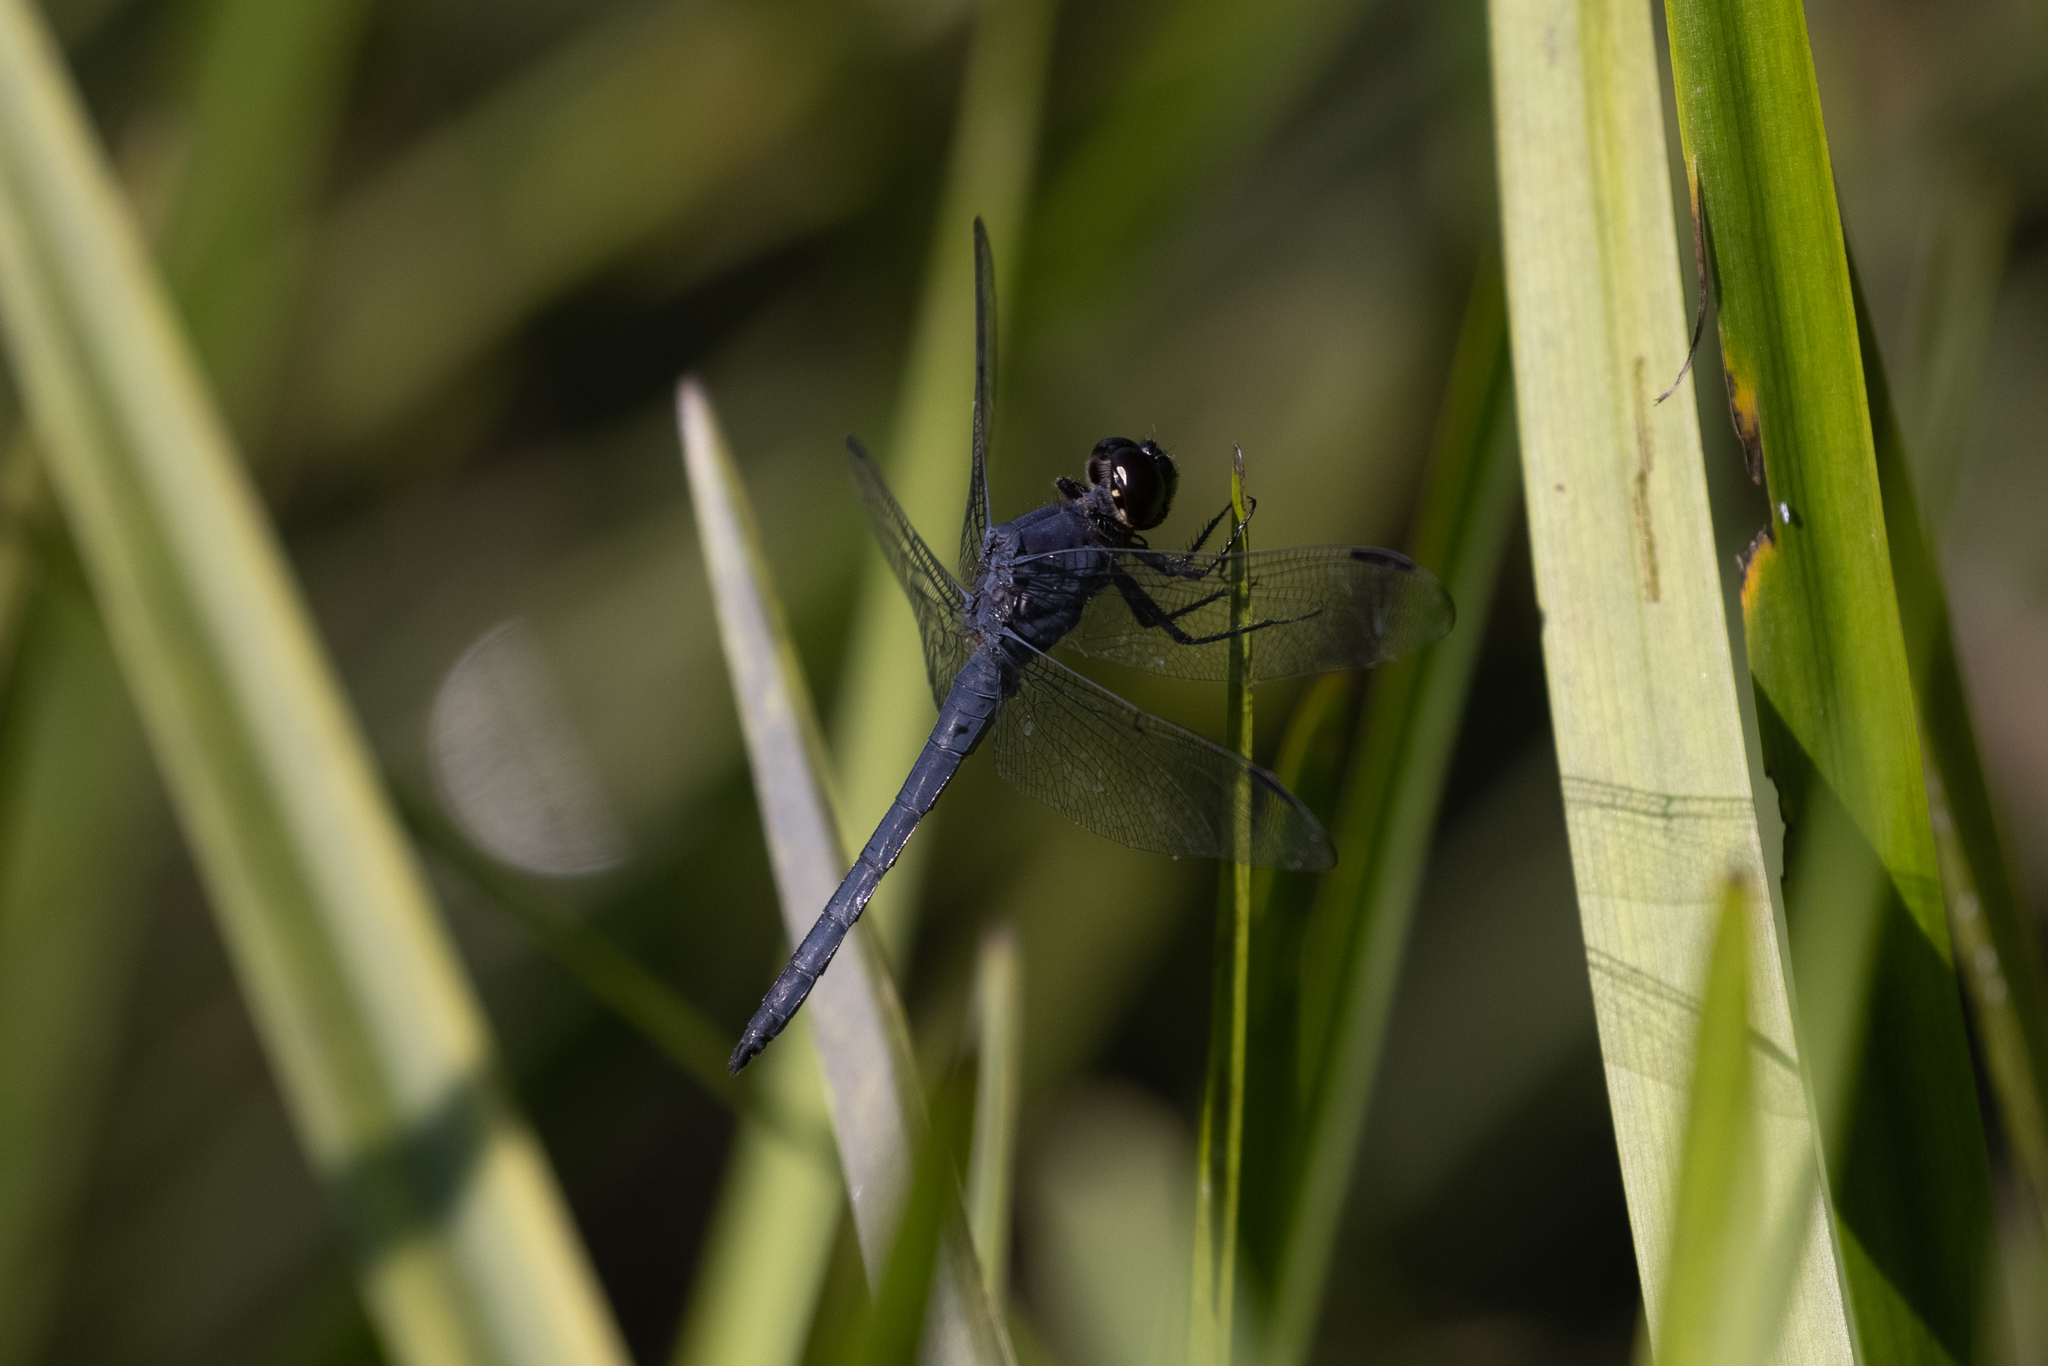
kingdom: Animalia
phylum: Arthropoda
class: Insecta
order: Odonata
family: Libellulidae
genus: Libellula
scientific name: Libellula incesta
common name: Slaty skimmer
